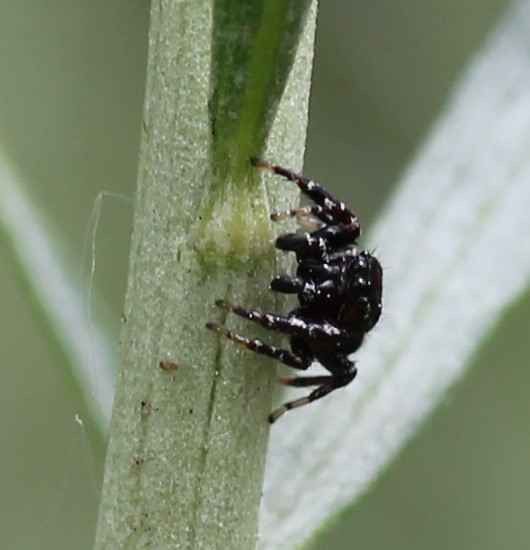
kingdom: Animalia
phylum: Arthropoda
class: Arachnida
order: Araneae
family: Salticidae
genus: Pelegrina
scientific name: Pelegrina aeneola
